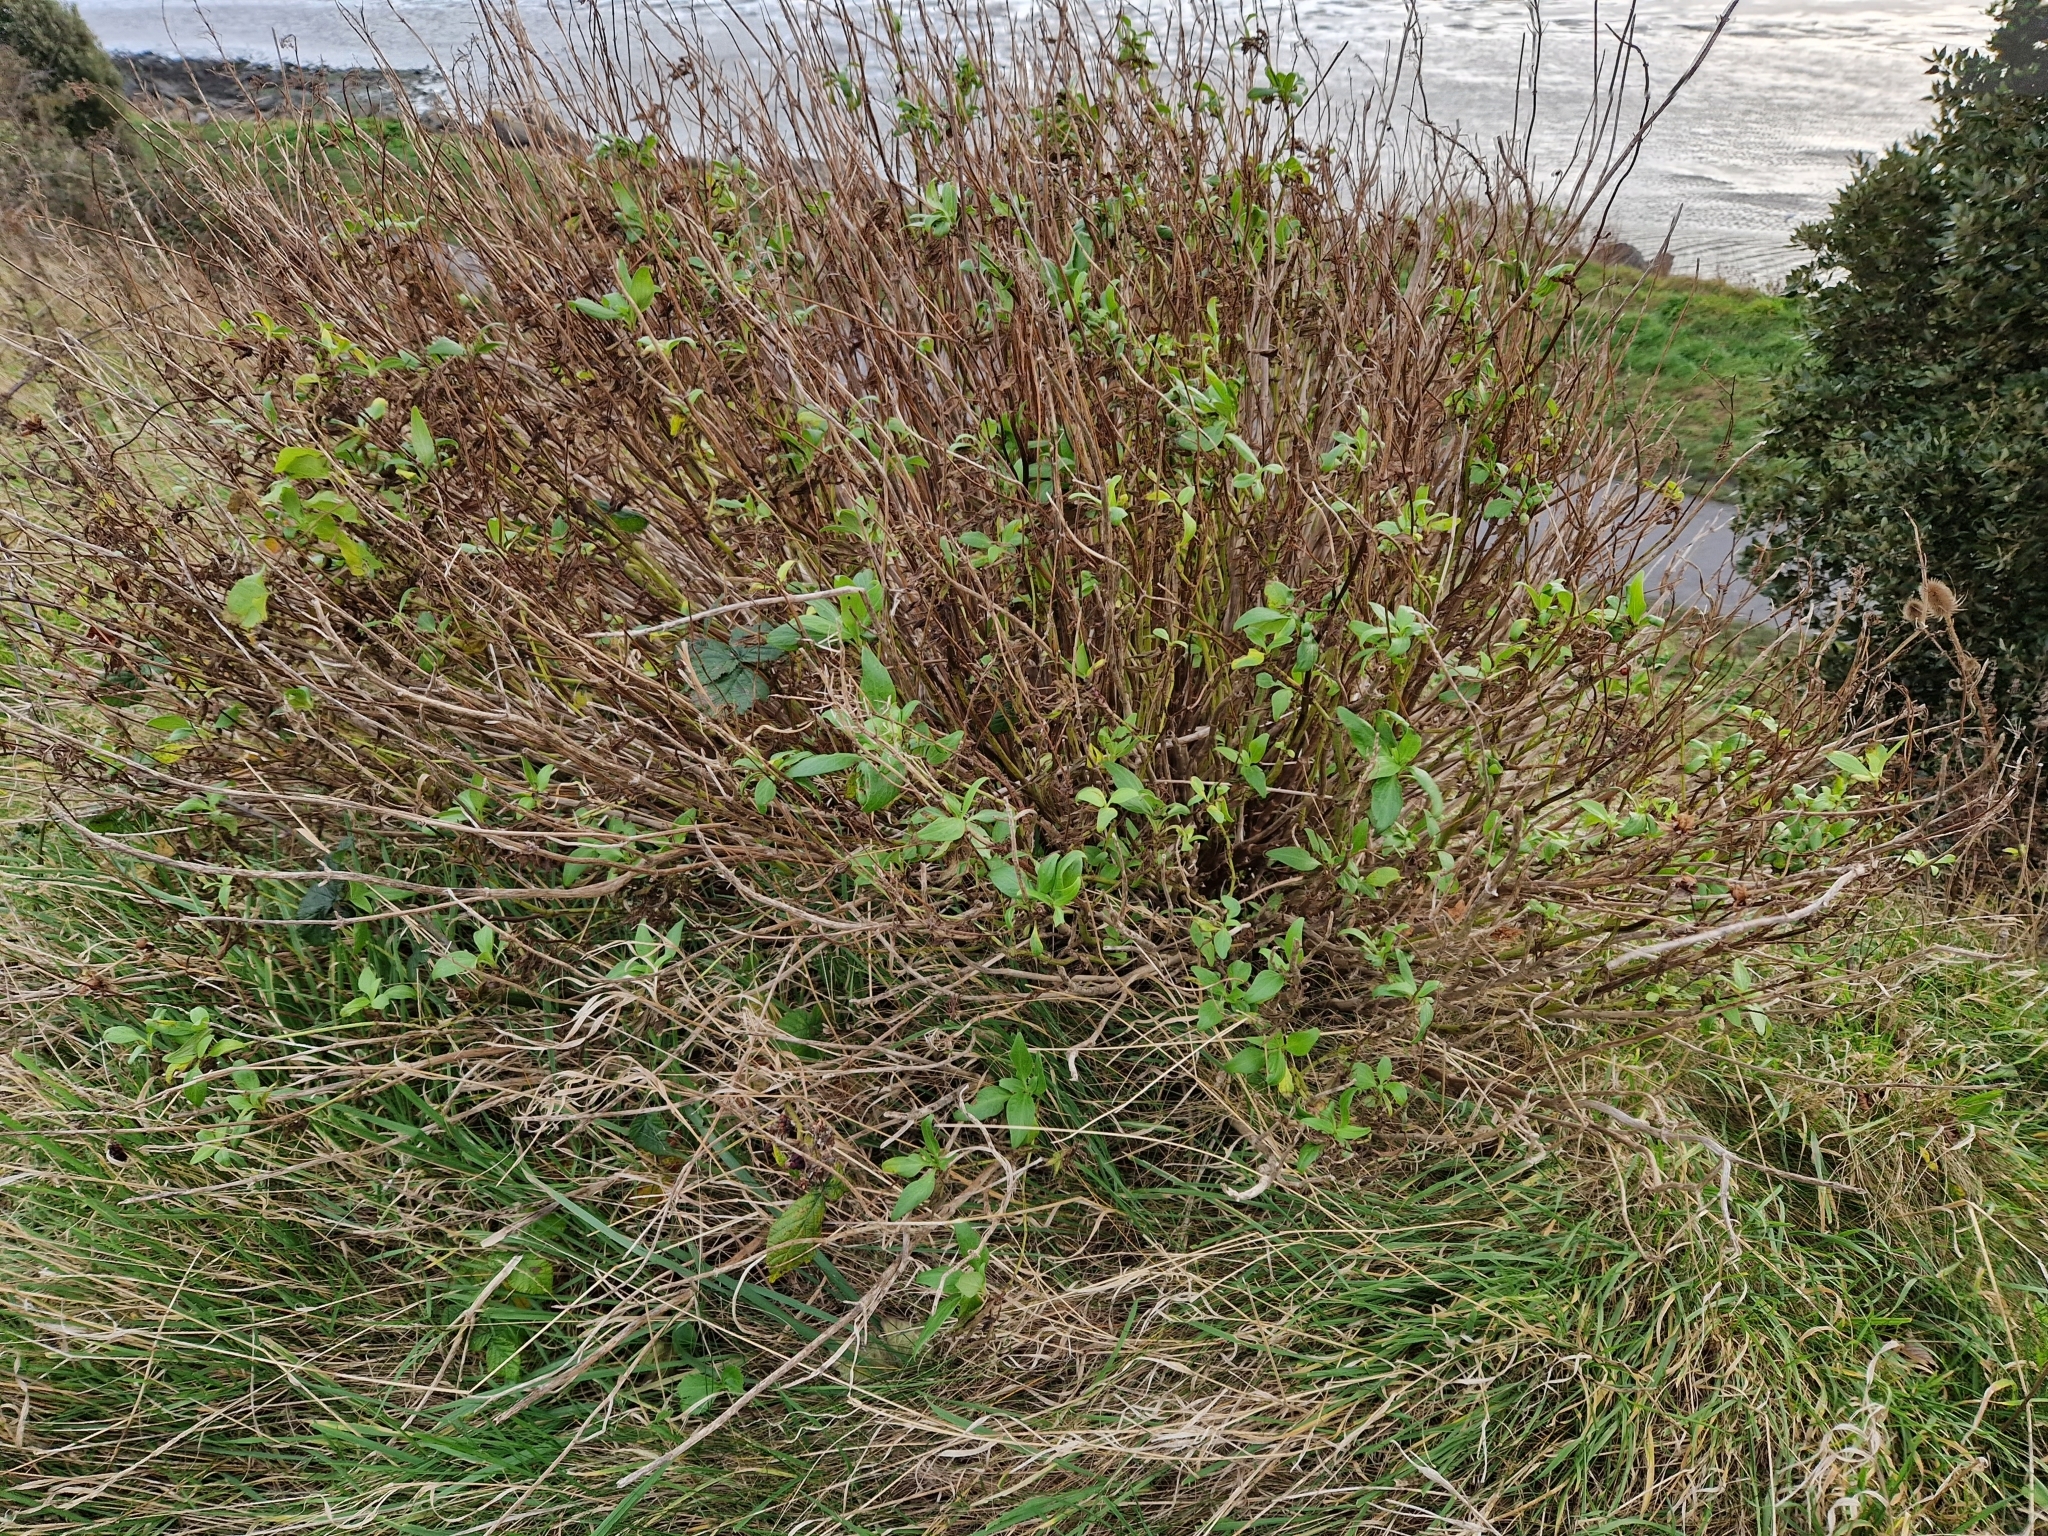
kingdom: Plantae
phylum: Tracheophyta
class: Magnoliopsida
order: Dipsacales
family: Caprifoliaceae
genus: Centranthus
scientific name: Centranthus ruber
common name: Red valerian
